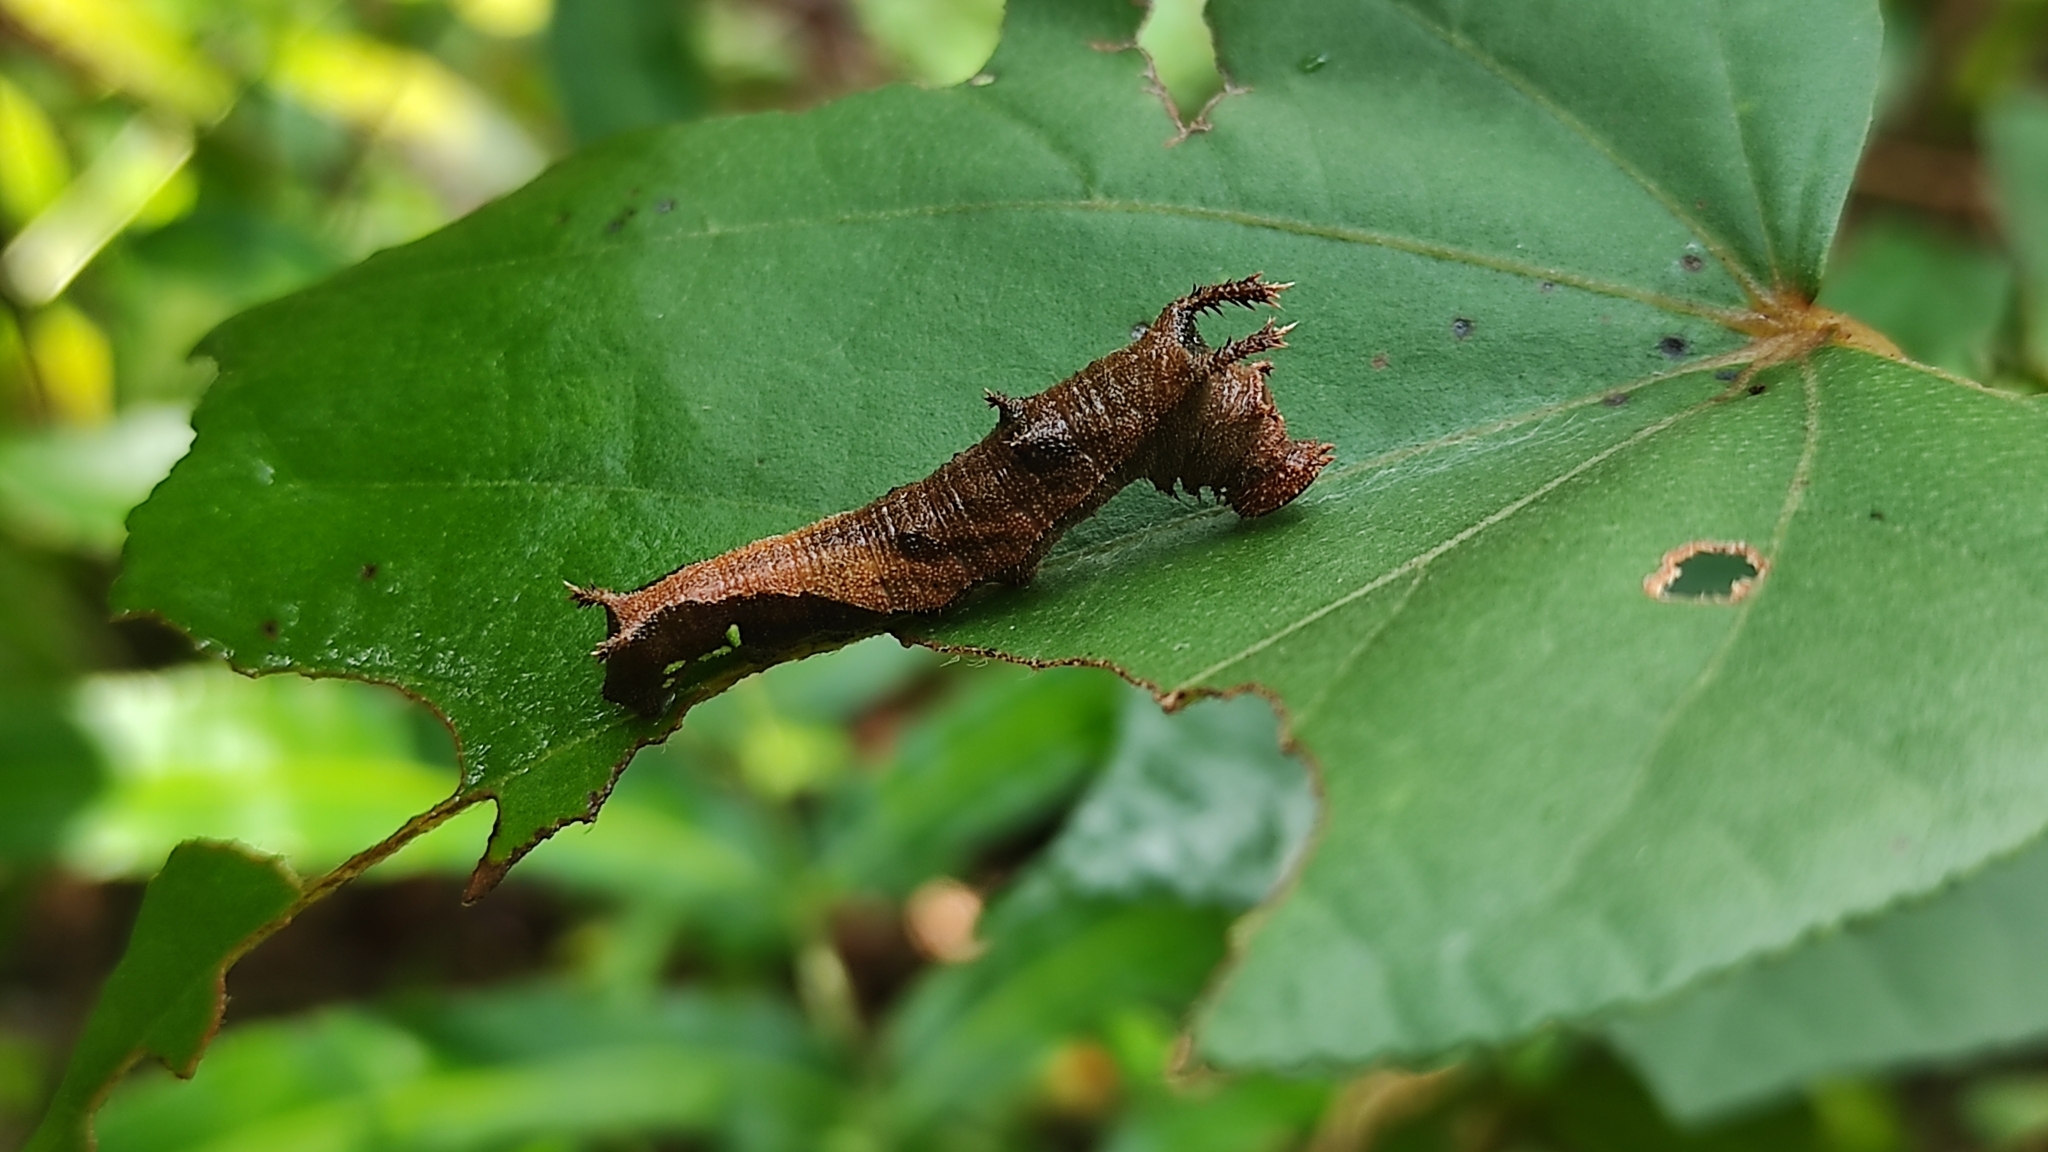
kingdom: Animalia
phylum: Arthropoda
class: Insecta
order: Lepidoptera
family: Nymphalidae
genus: Neptis
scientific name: Neptis jumbah
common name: Chestnut-streaked sailer
